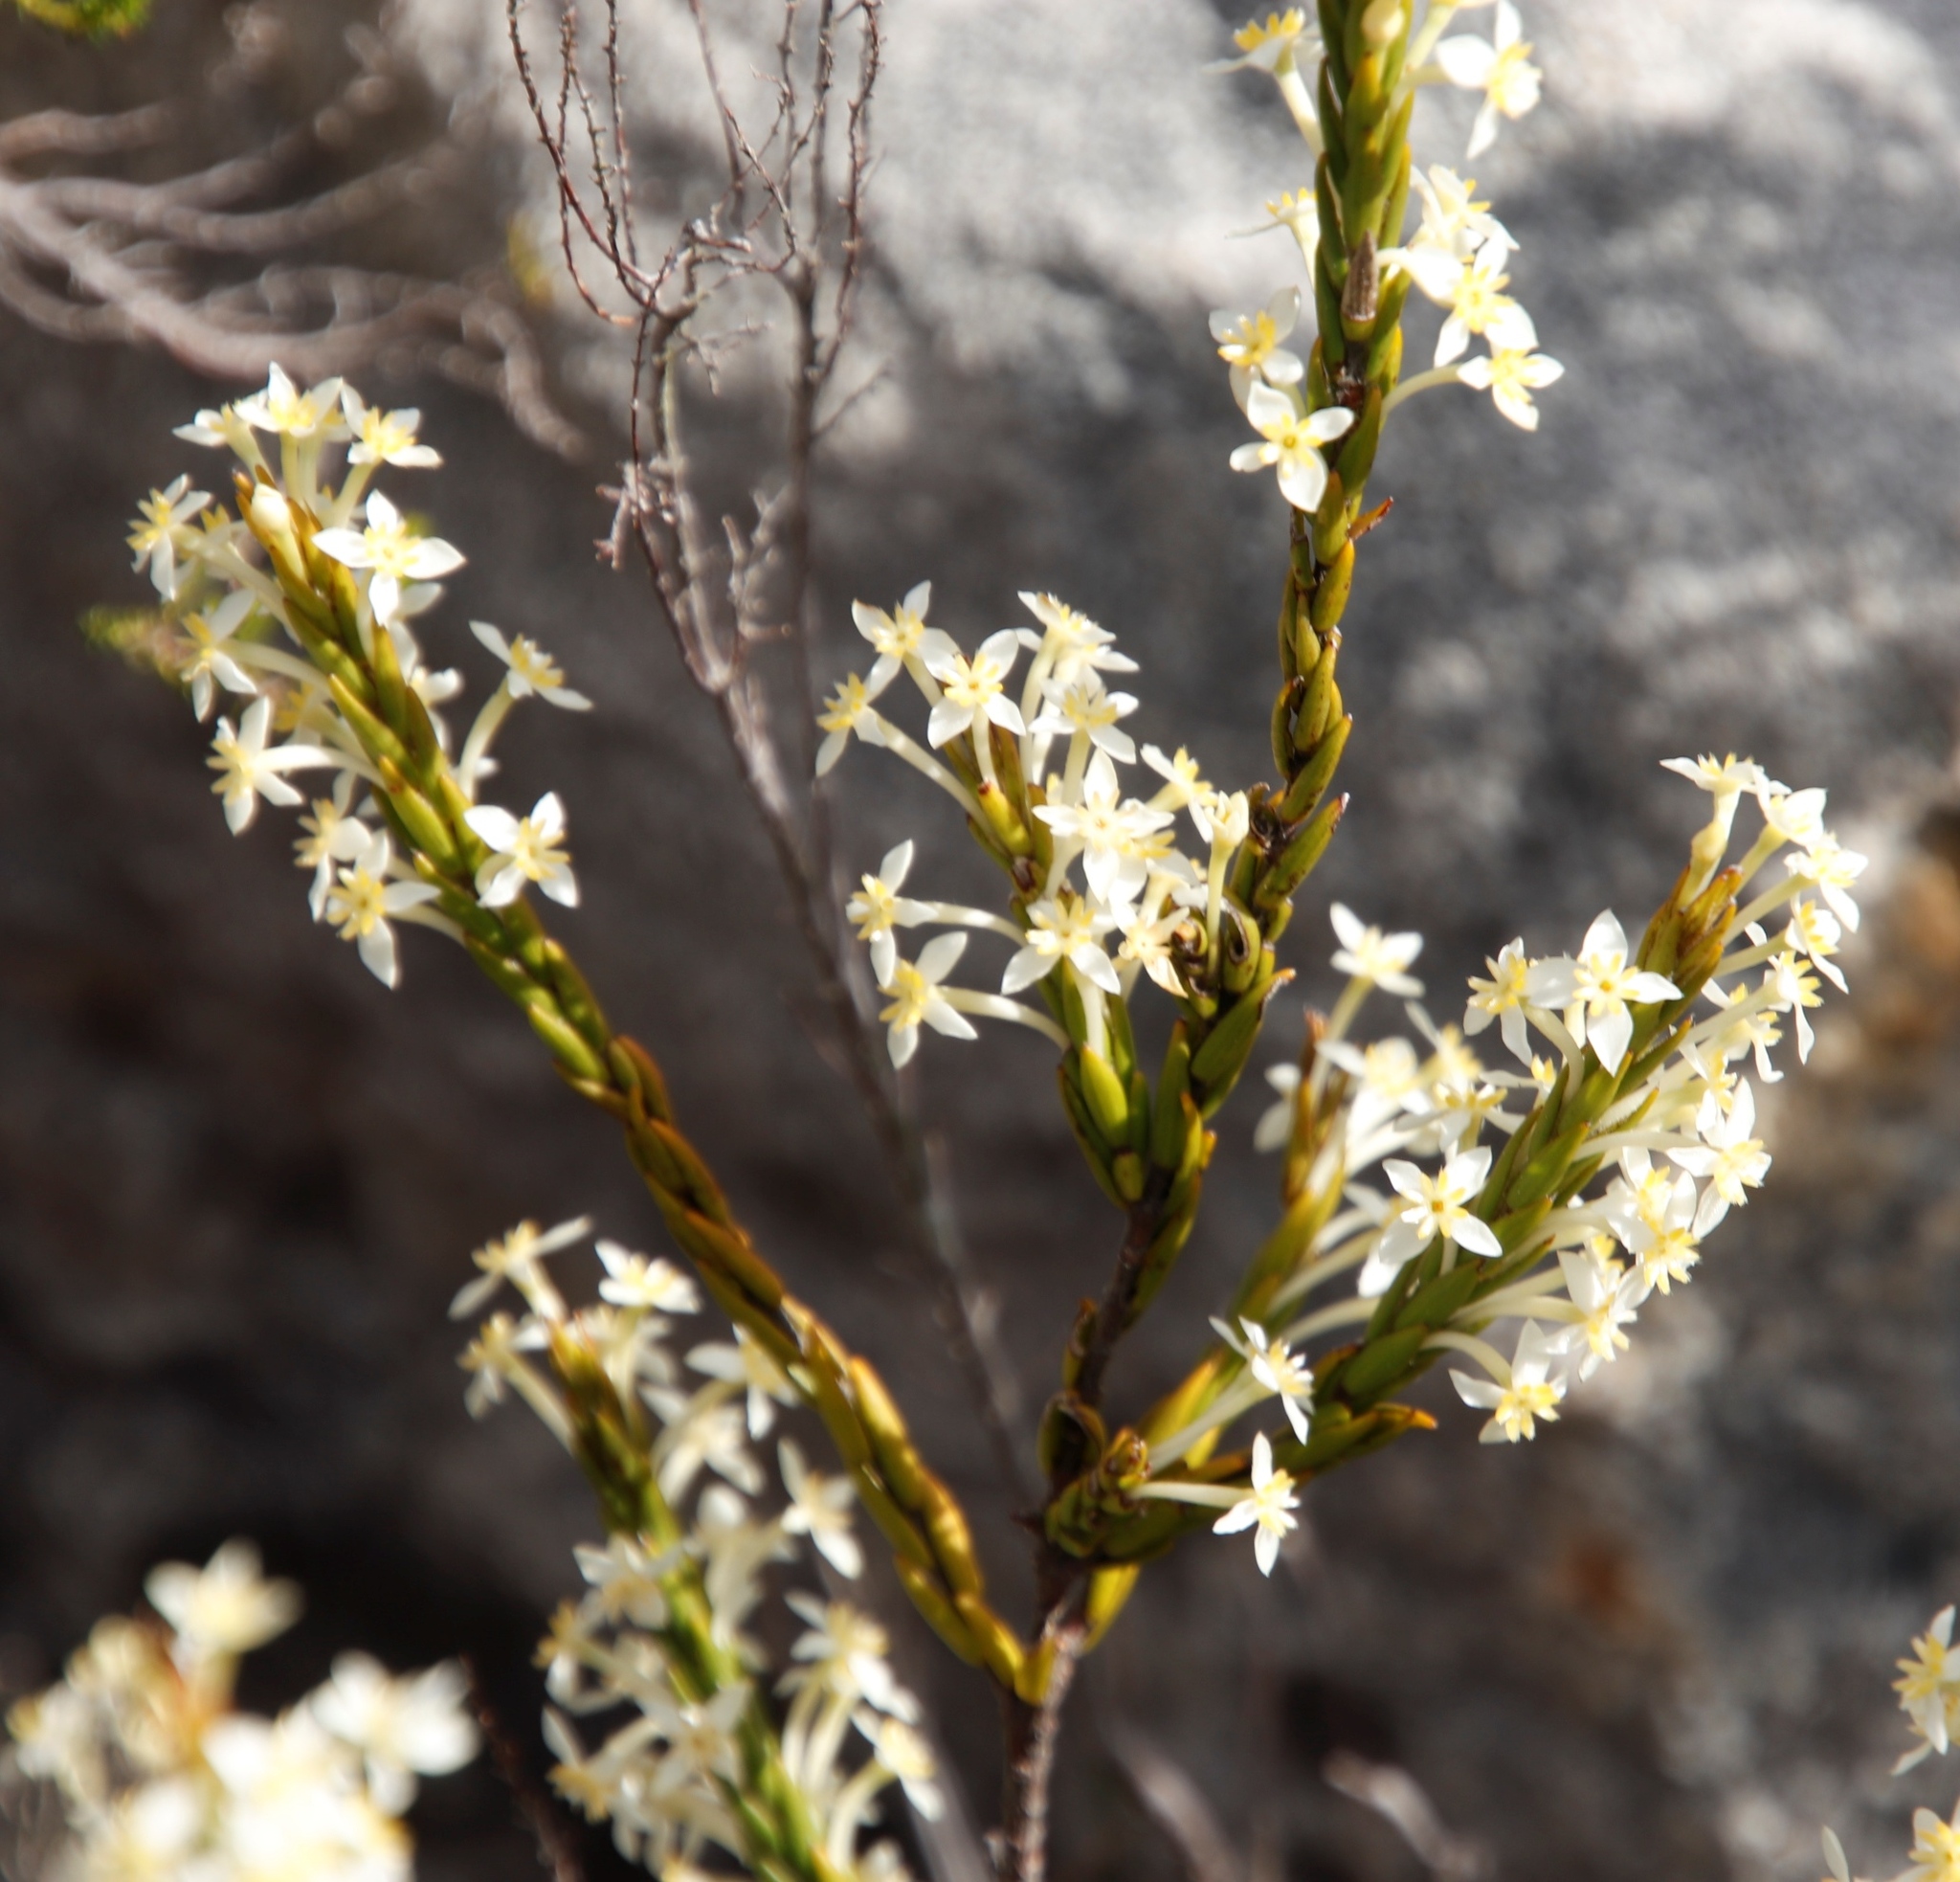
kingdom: Plantae
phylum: Tracheophyta
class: Magnoliopsida
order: Malvales
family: Thymelaeaceae
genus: Struthiola
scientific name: Struthiola ciliata
